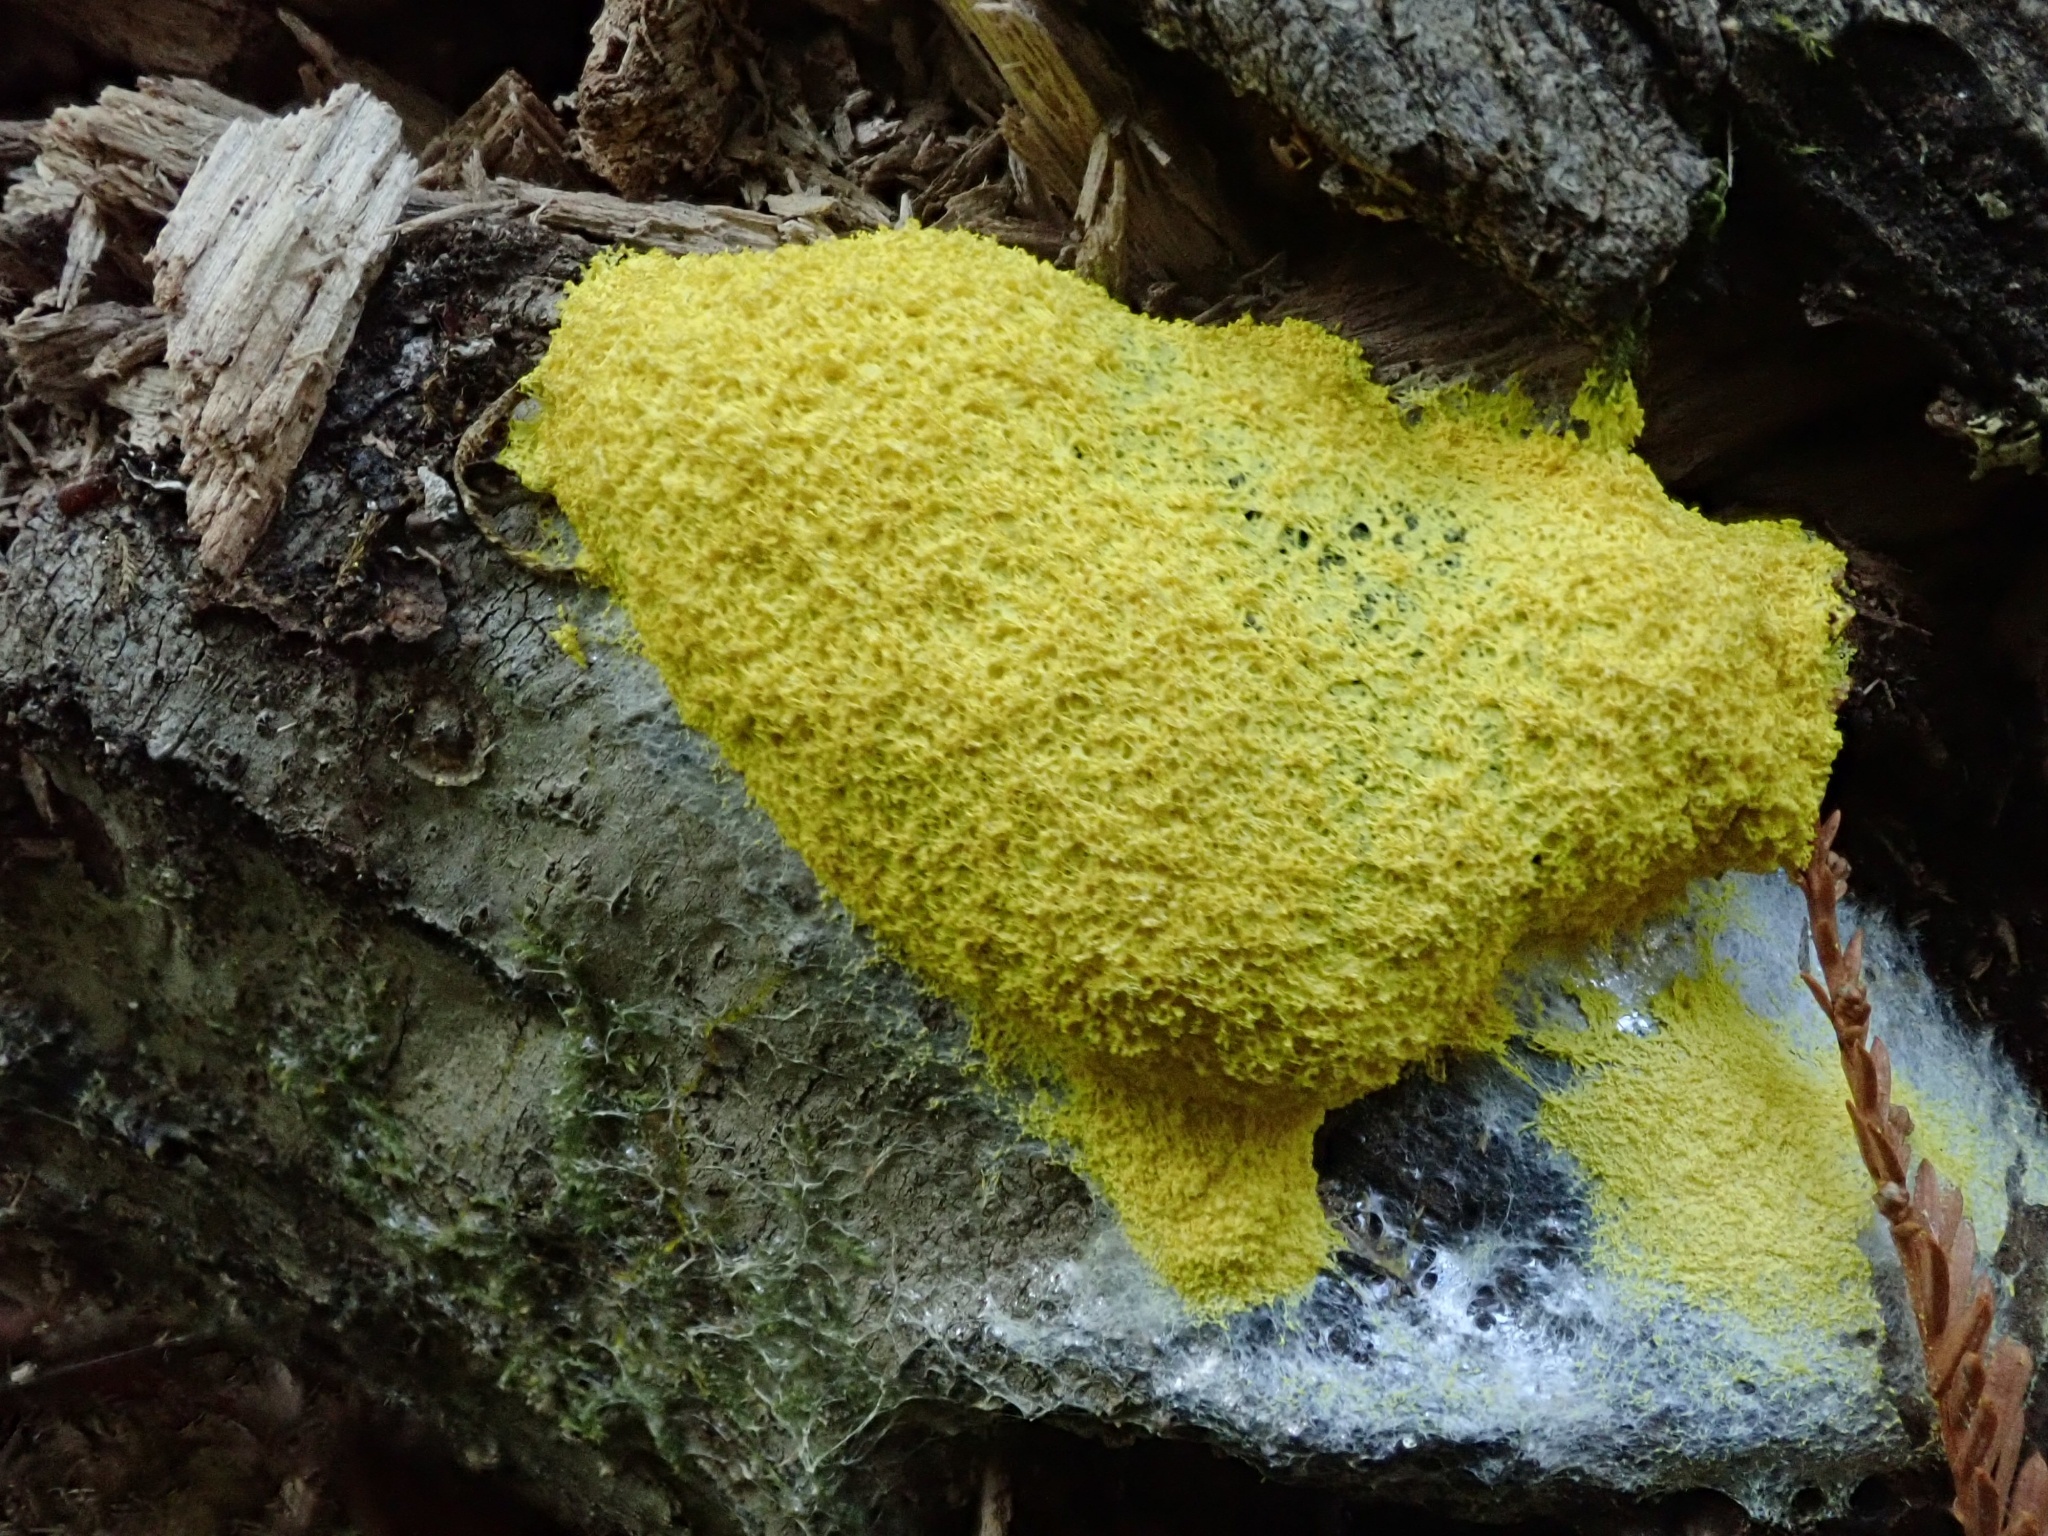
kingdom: Protozoa
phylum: Mycetozoa
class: Myxomycetes
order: Physarales
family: Physaraceae
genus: Fuligo
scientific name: Fuligo septica
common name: Dog vomit slime mold
